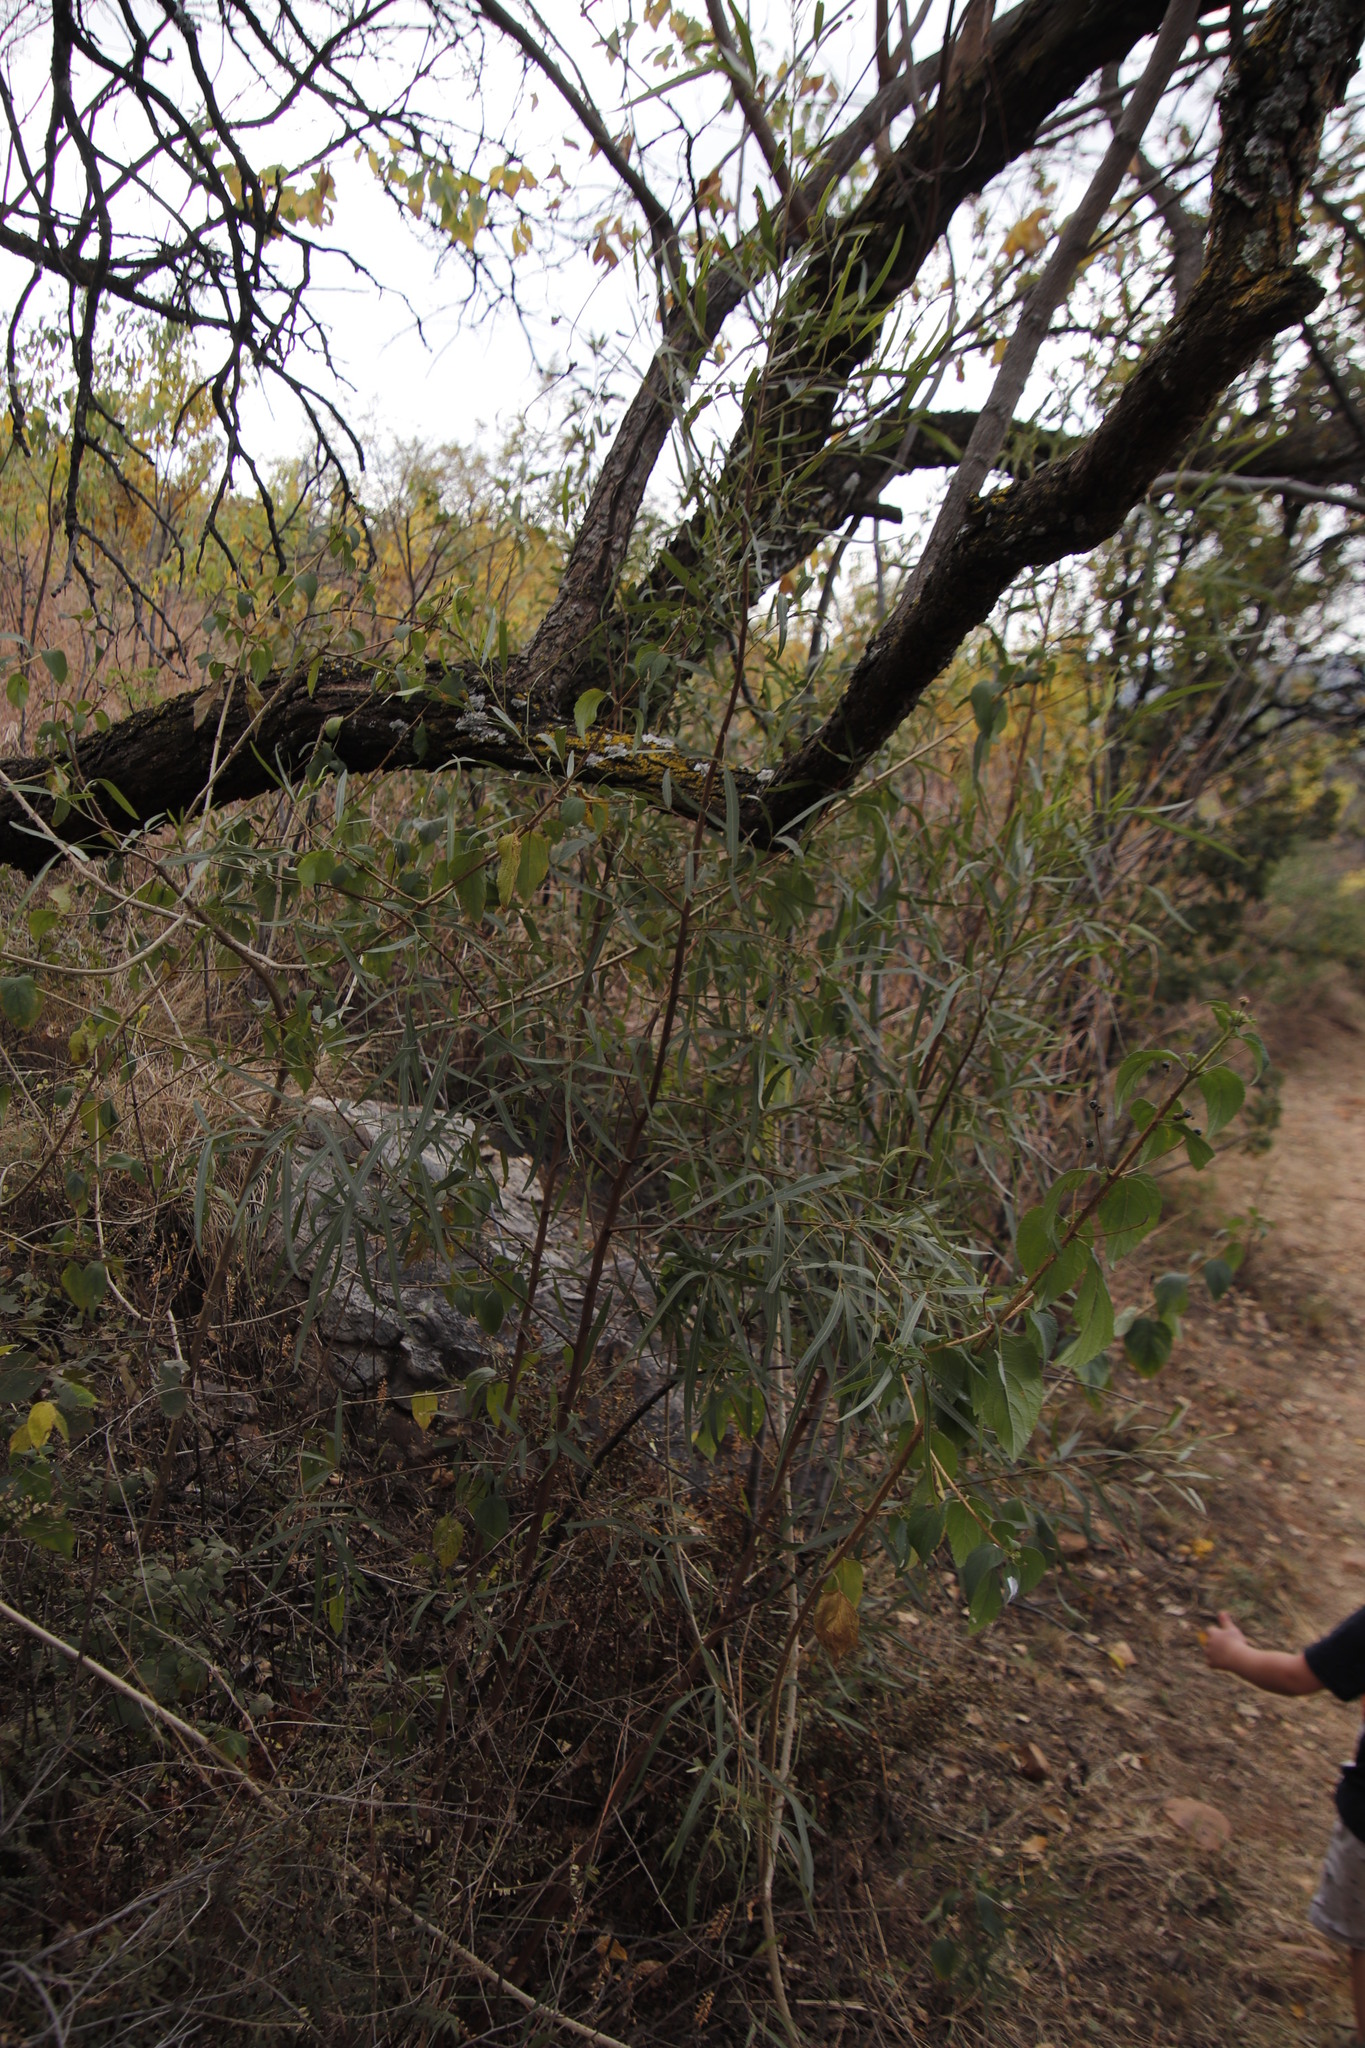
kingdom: Plantae
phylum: Tracheophyta
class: Magnoliopsida
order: Sapindales
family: Anacardiaceae
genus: Searsia
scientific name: Searsia lancea
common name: Cashew
